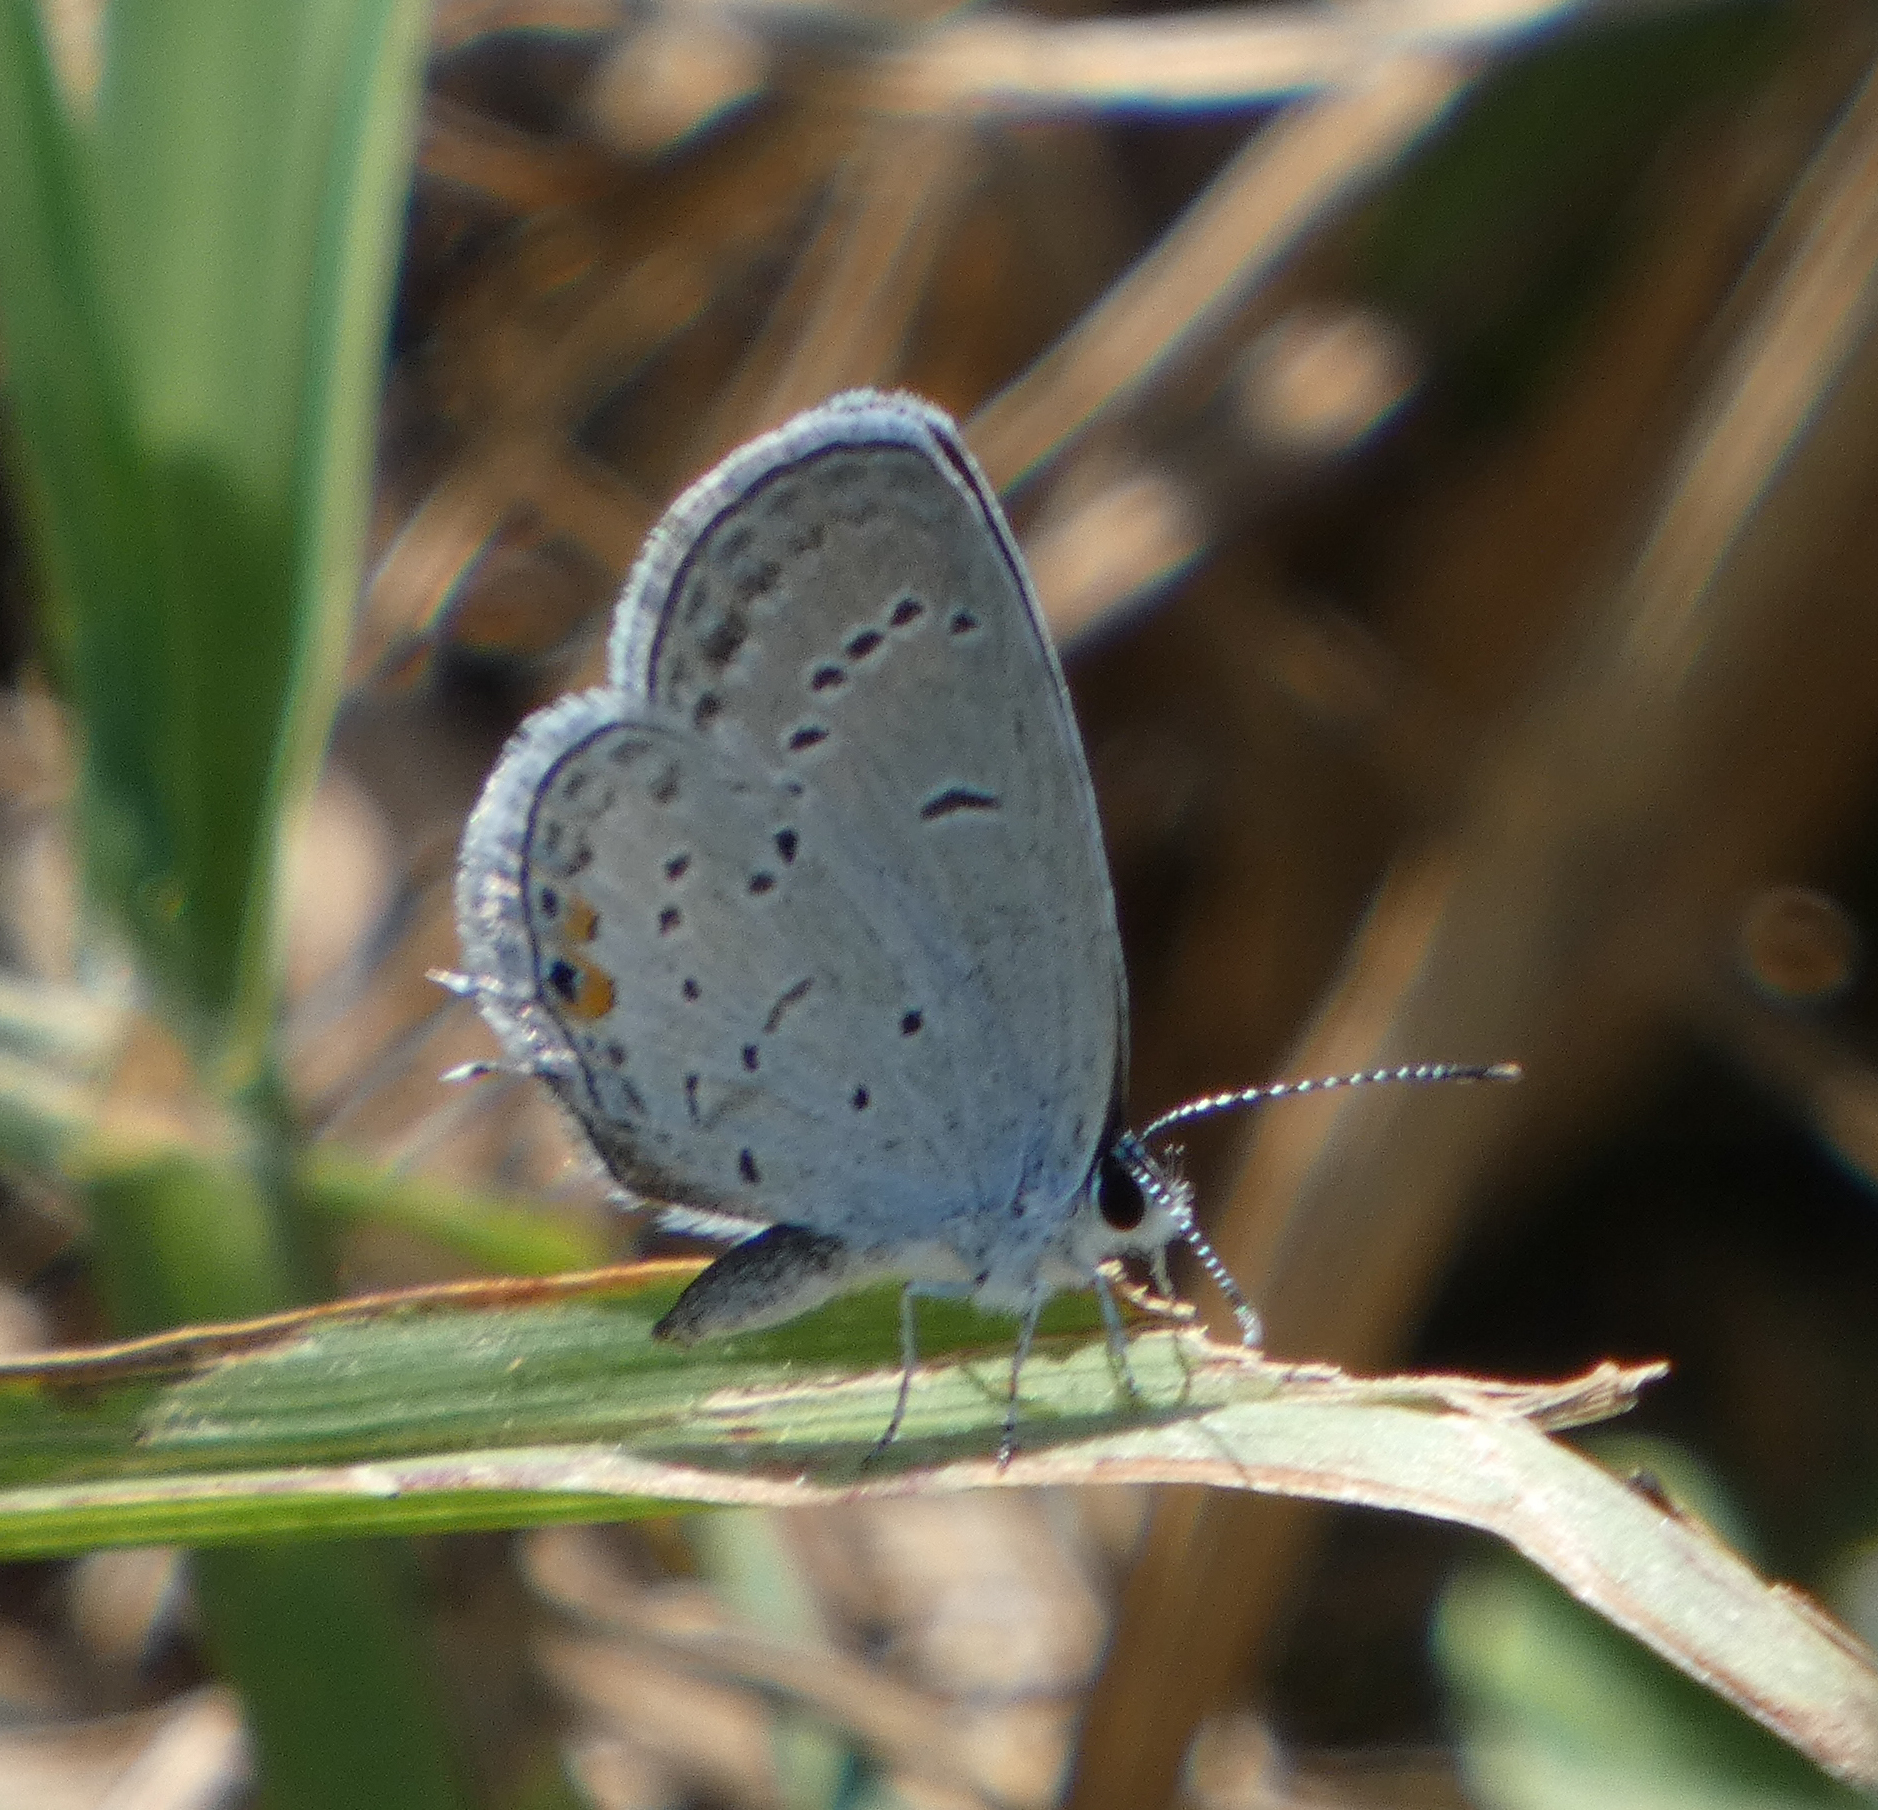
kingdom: Animalia
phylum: Arthropoda
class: Insecta
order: Lepidoptera
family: Lycaenidae
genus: Elkalyce
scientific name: Elkalyce comyntas
